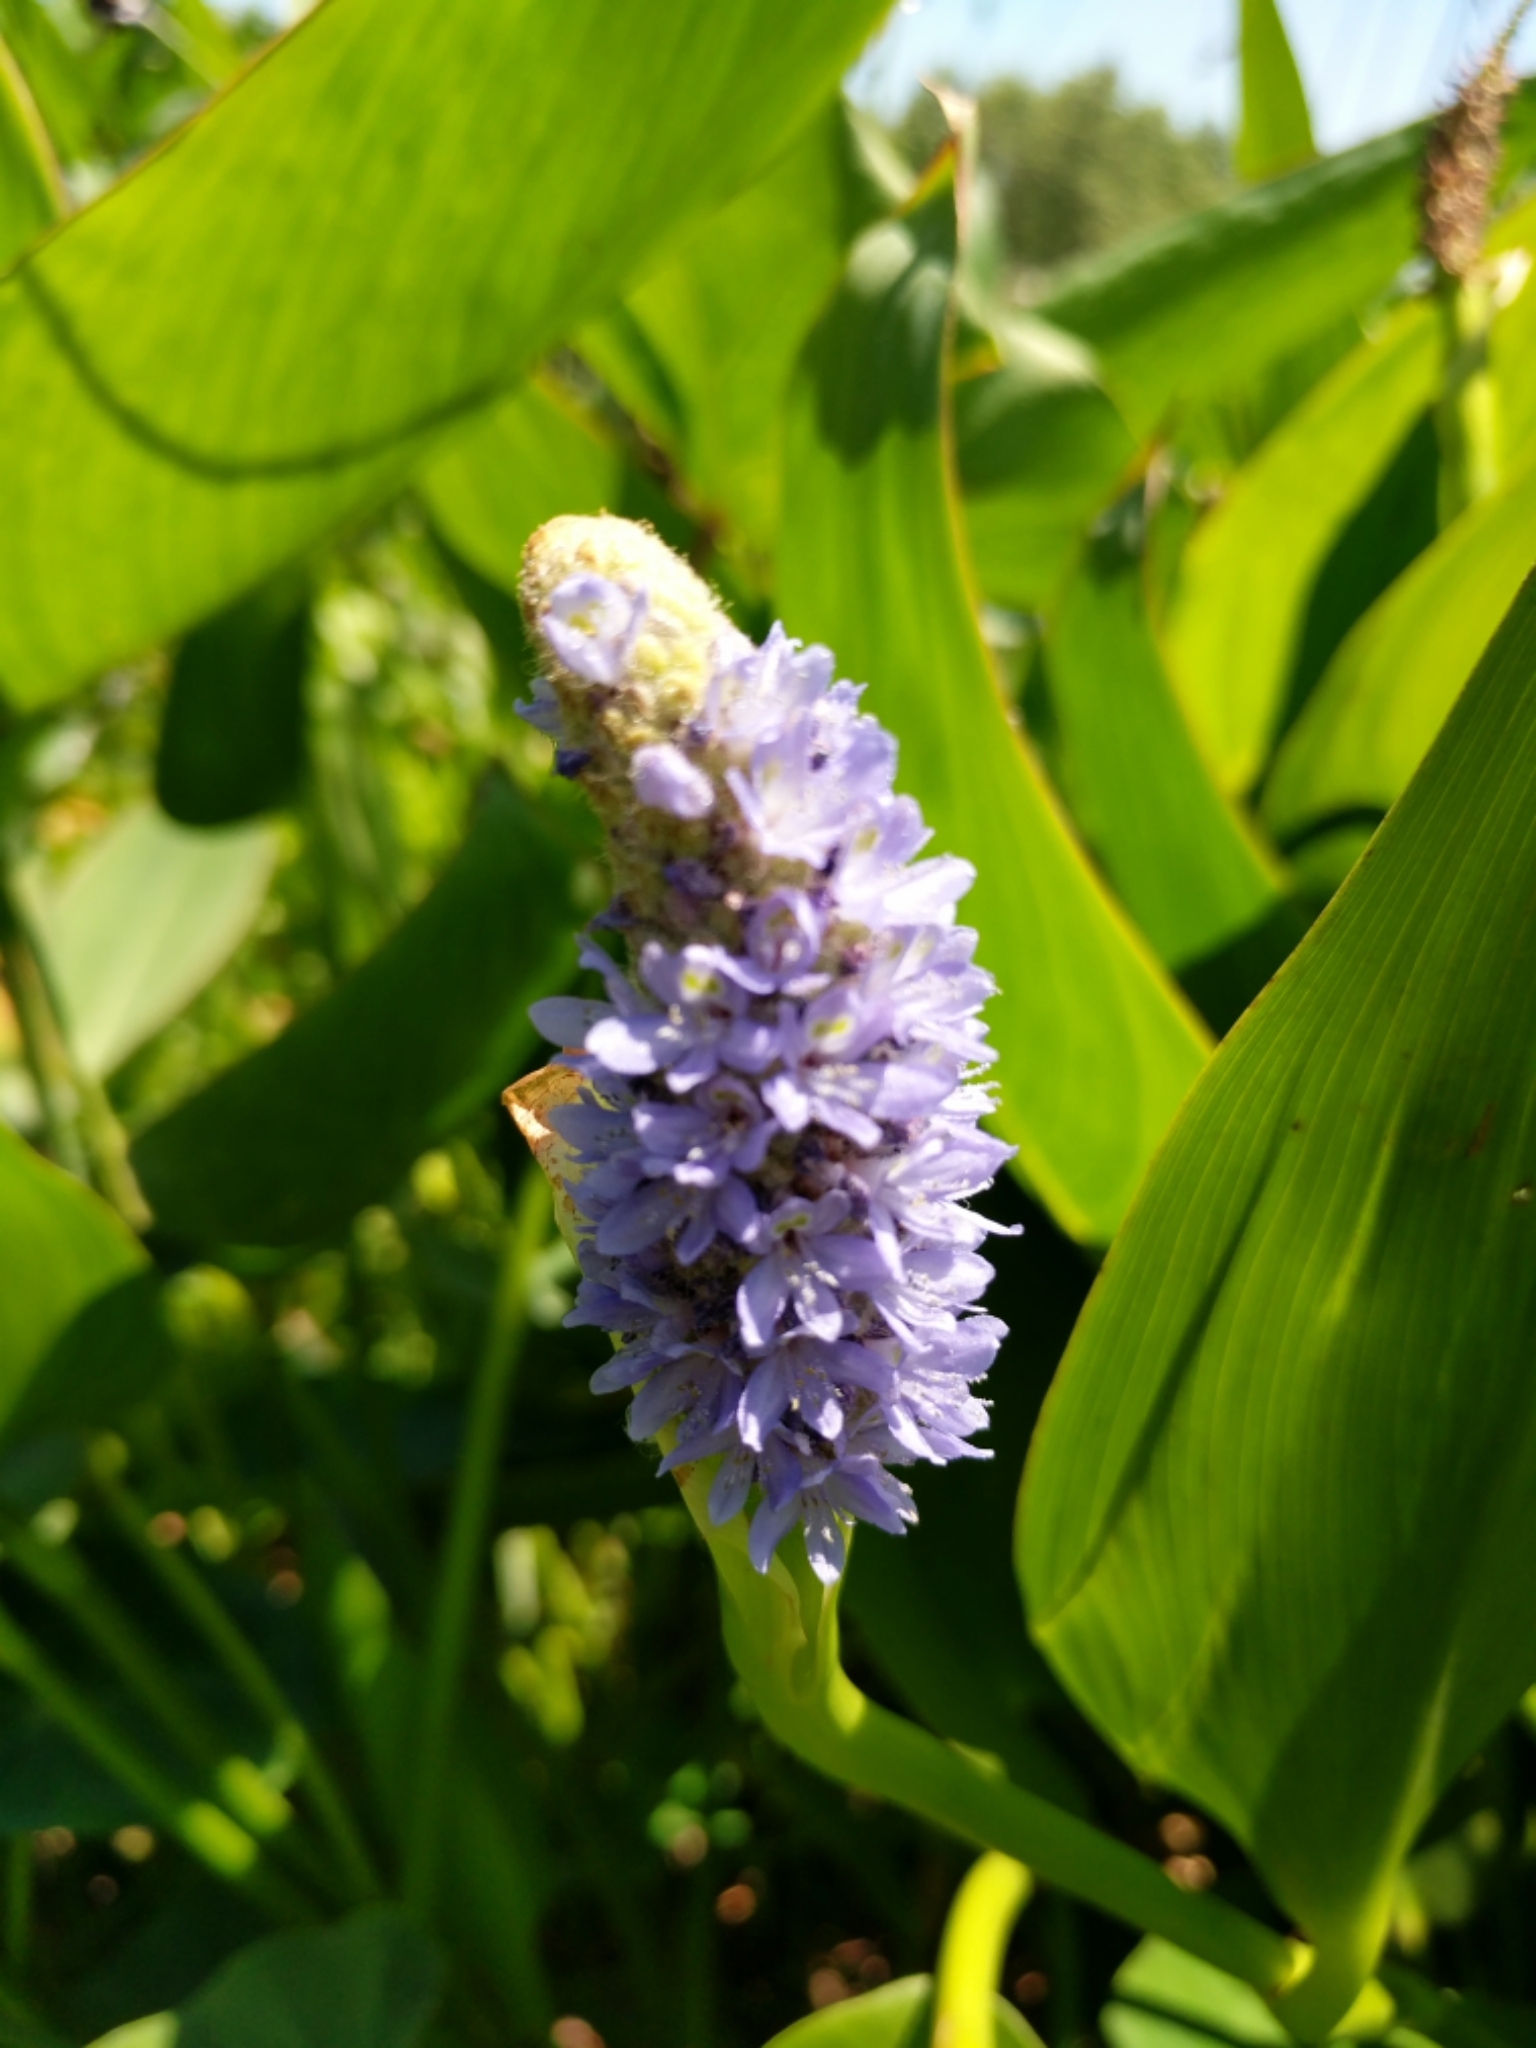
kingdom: Plantae
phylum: Tracheophyta
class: Liliopsida
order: Commelinales
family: Pontederiaceae
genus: Pontederia
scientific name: Pontederia cordata
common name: Pickerelweed
